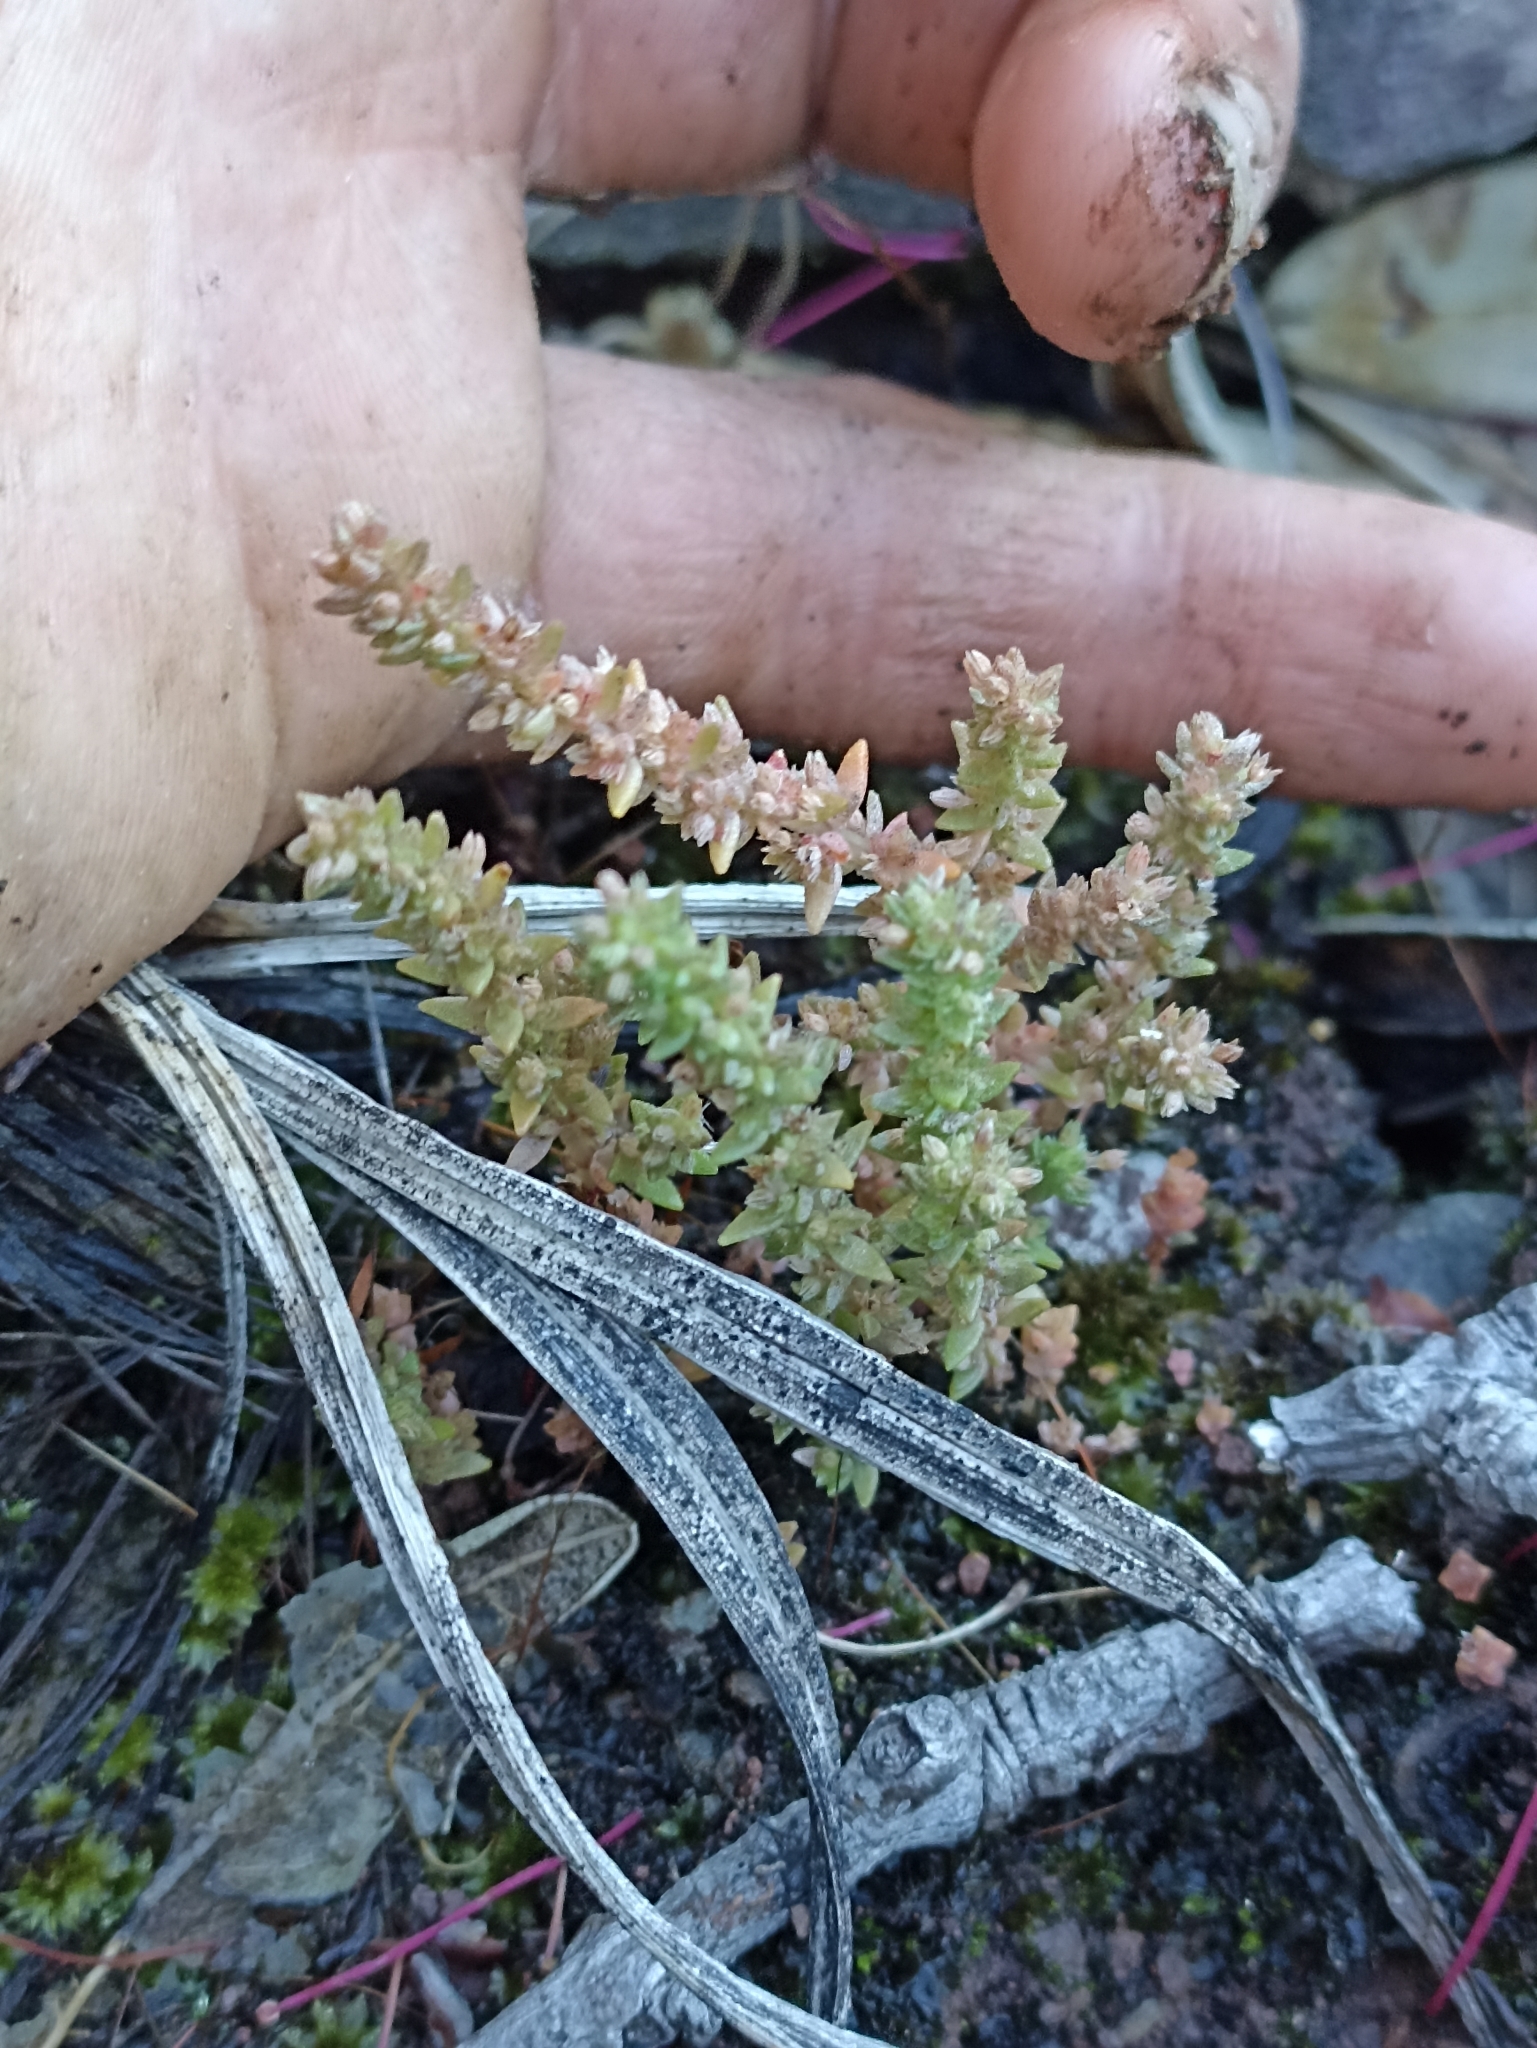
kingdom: Plantae
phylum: Tracheophyta
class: Magnoliopsida
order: Saxifragales
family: Crassulaceae
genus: Crassula
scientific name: Crassula sieberiana
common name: Siberian pygmyweed
